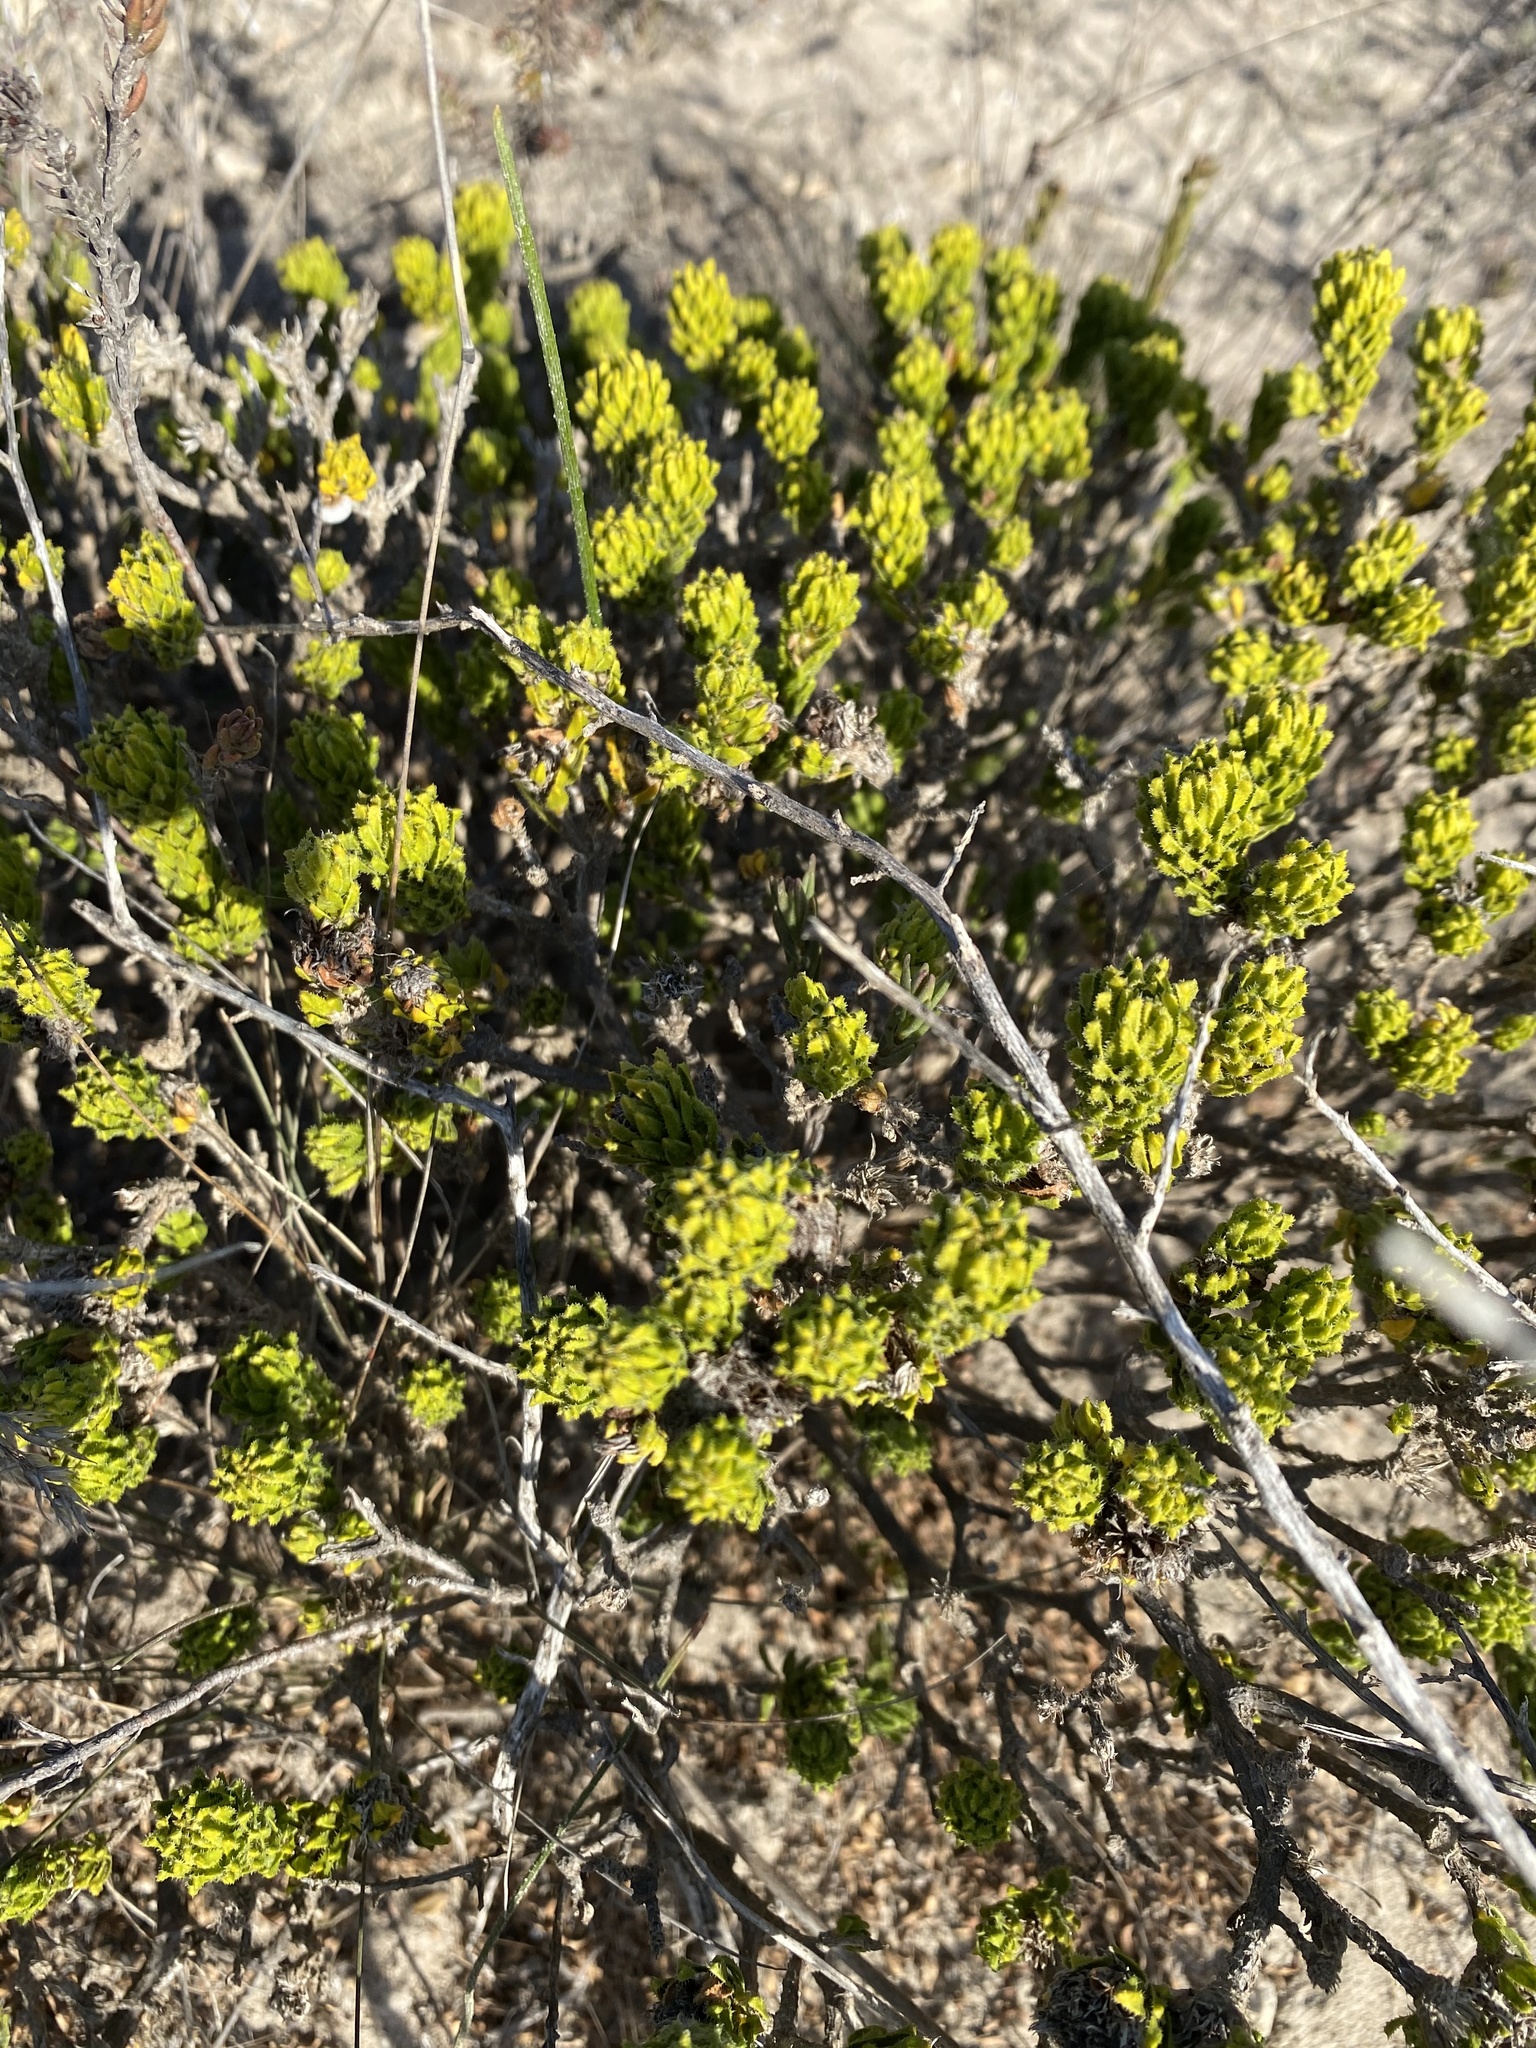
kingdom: Plantae
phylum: Tracheophyta
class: Magnoliopsida
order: Sapindales
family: Rutaceae
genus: Agathosma
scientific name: Agathosma eriantha
